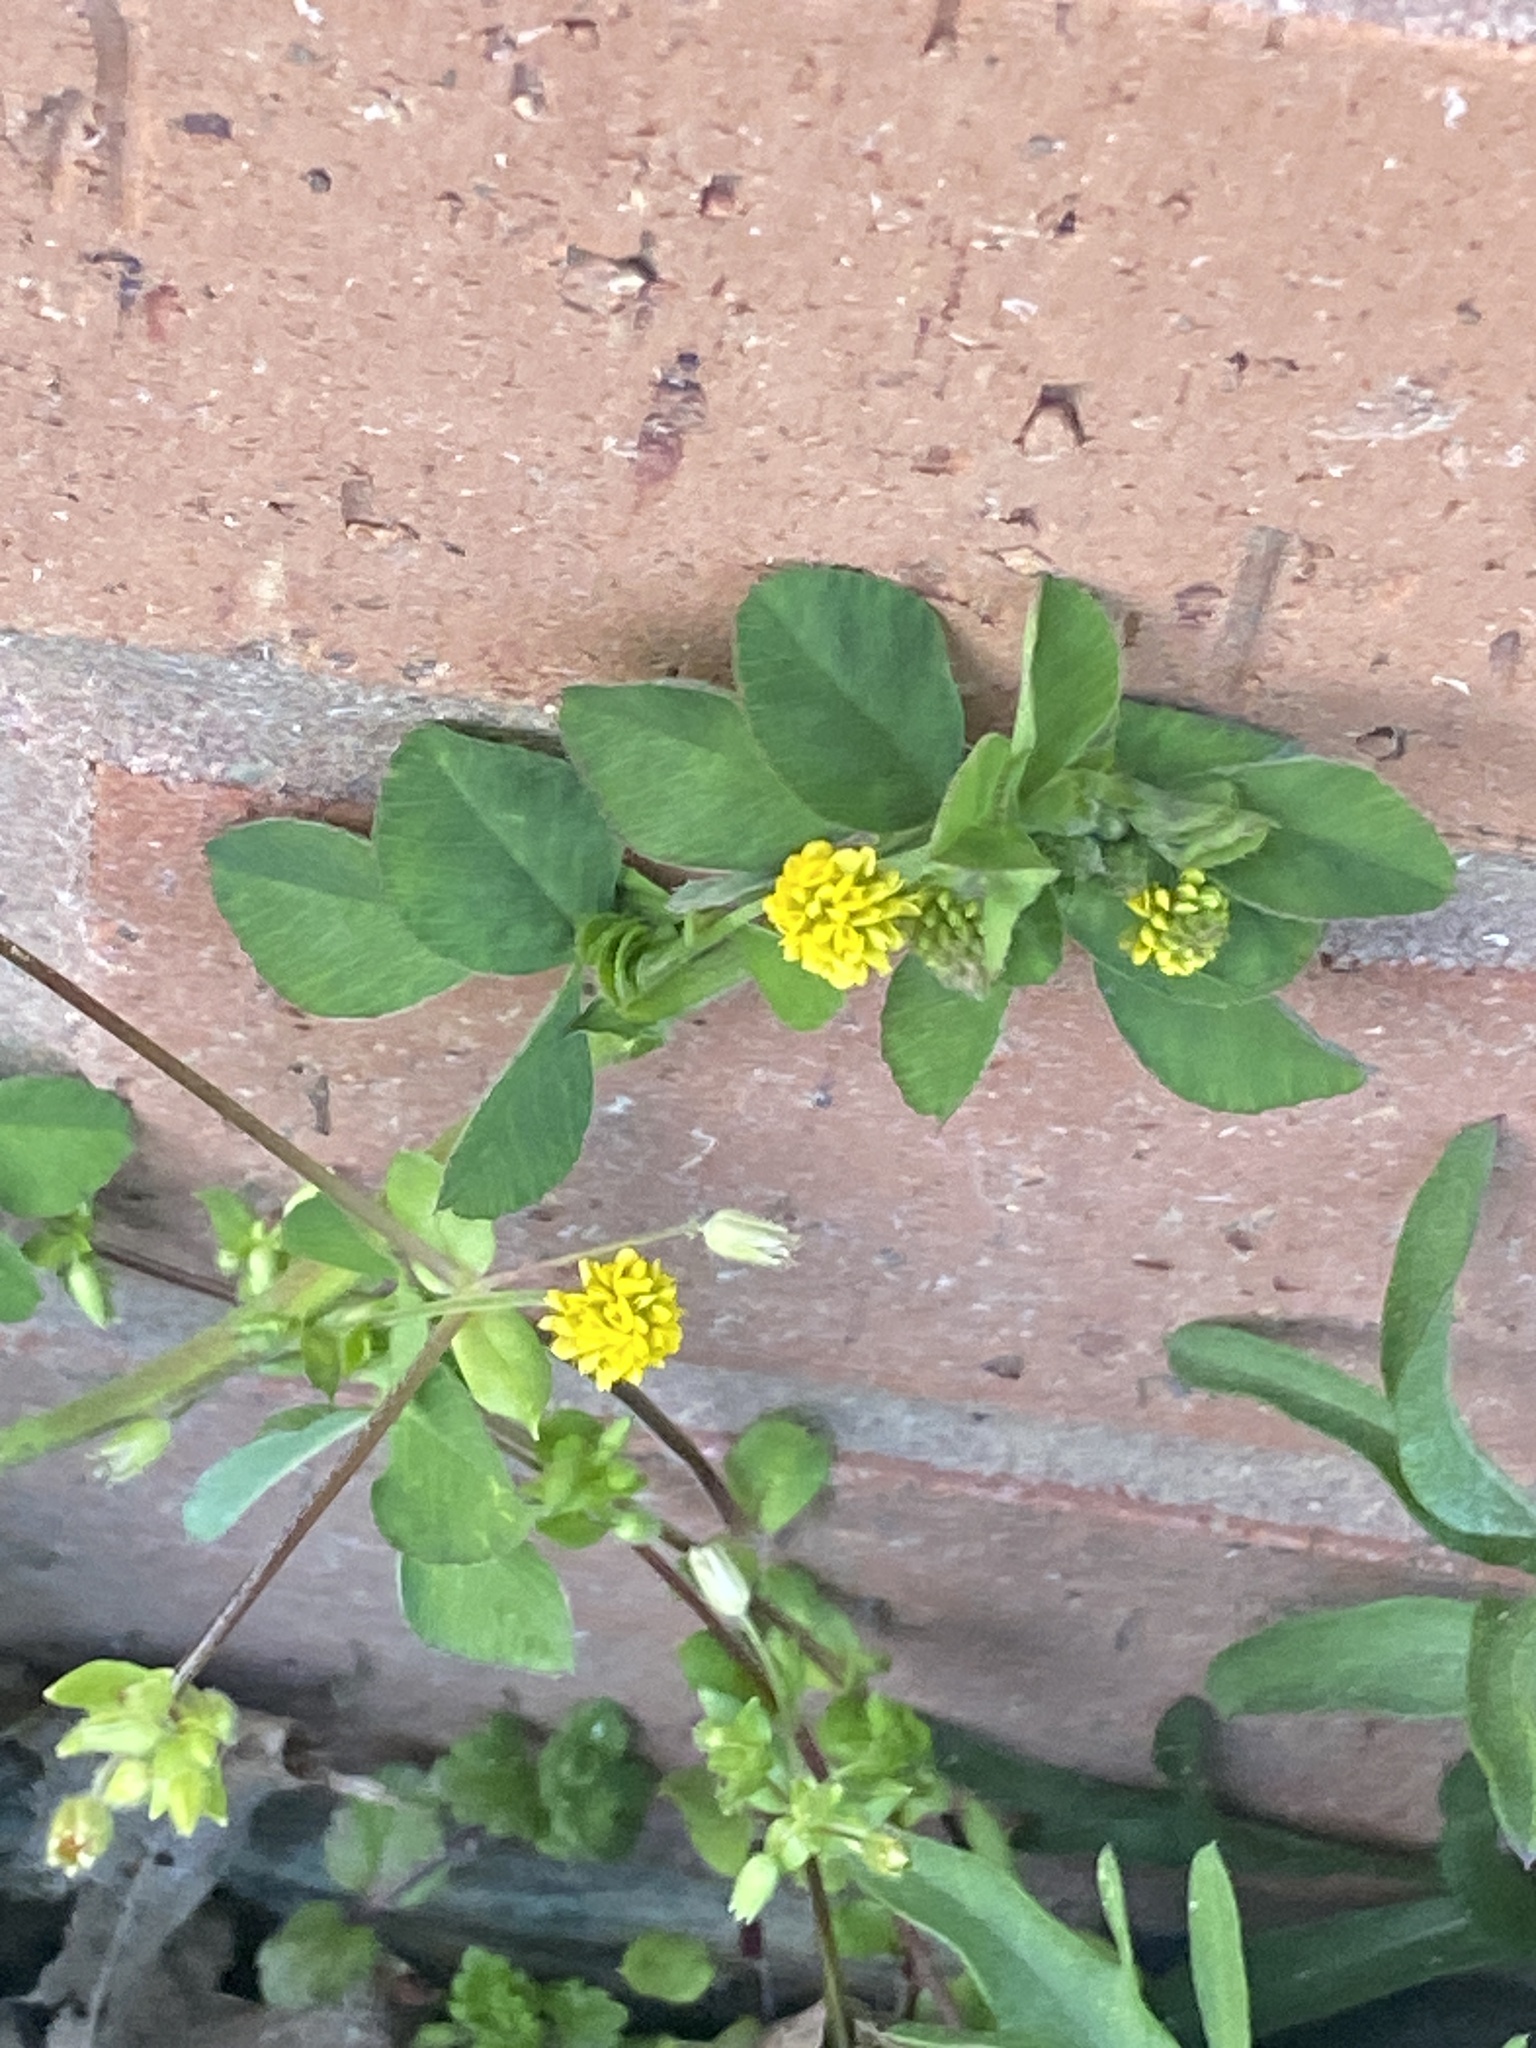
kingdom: Plantae
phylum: Tracheophyta
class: Magnoliopsida
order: Fabales
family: Fabaceae
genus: Medicago
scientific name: Medicago lupulina
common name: Black medick
